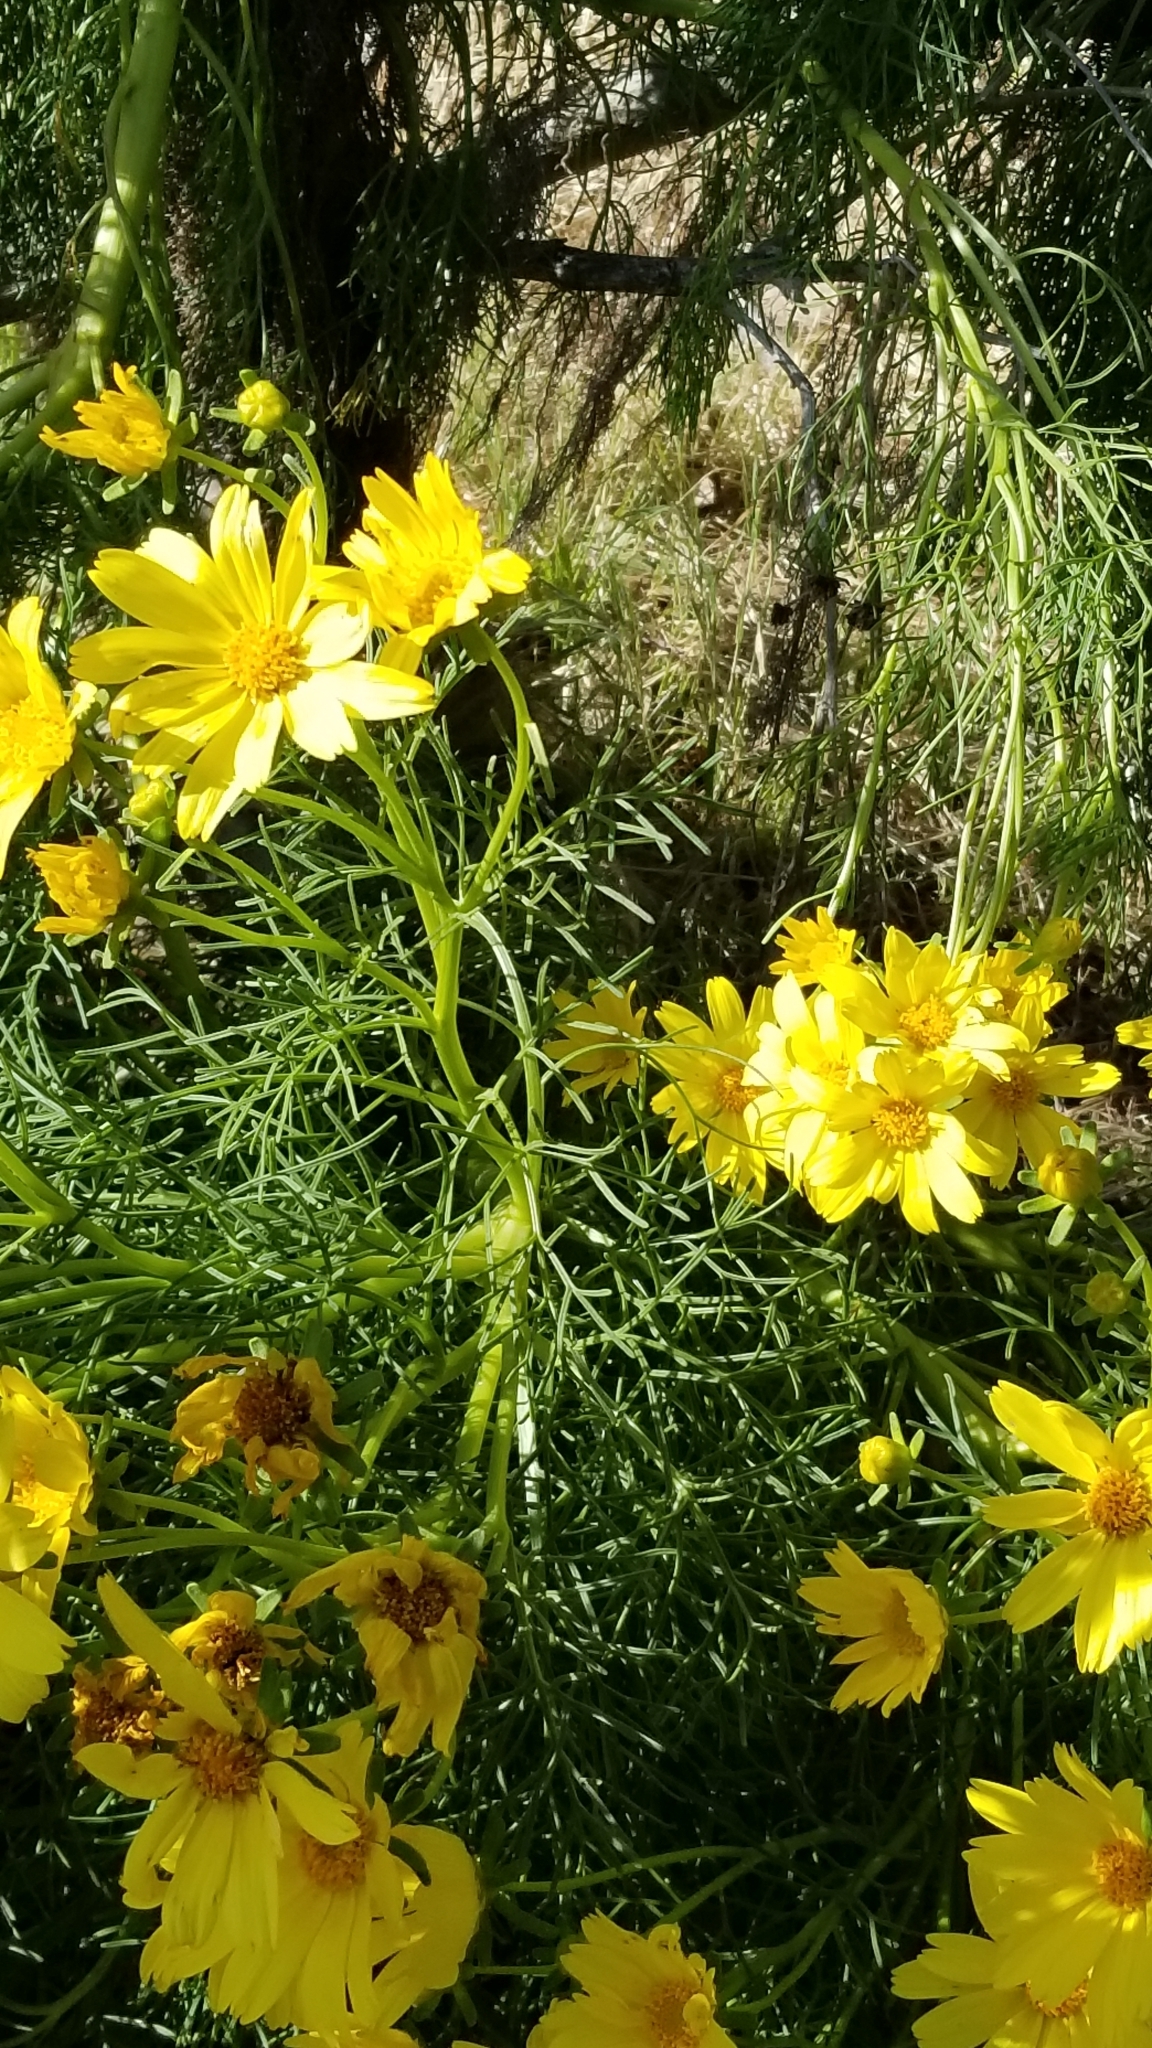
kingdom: Plantae
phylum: Tracheophyta
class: Magnoliopsida
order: Asterales
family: Asteraceae
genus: Coreopsis
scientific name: Coreopsis gigantea
